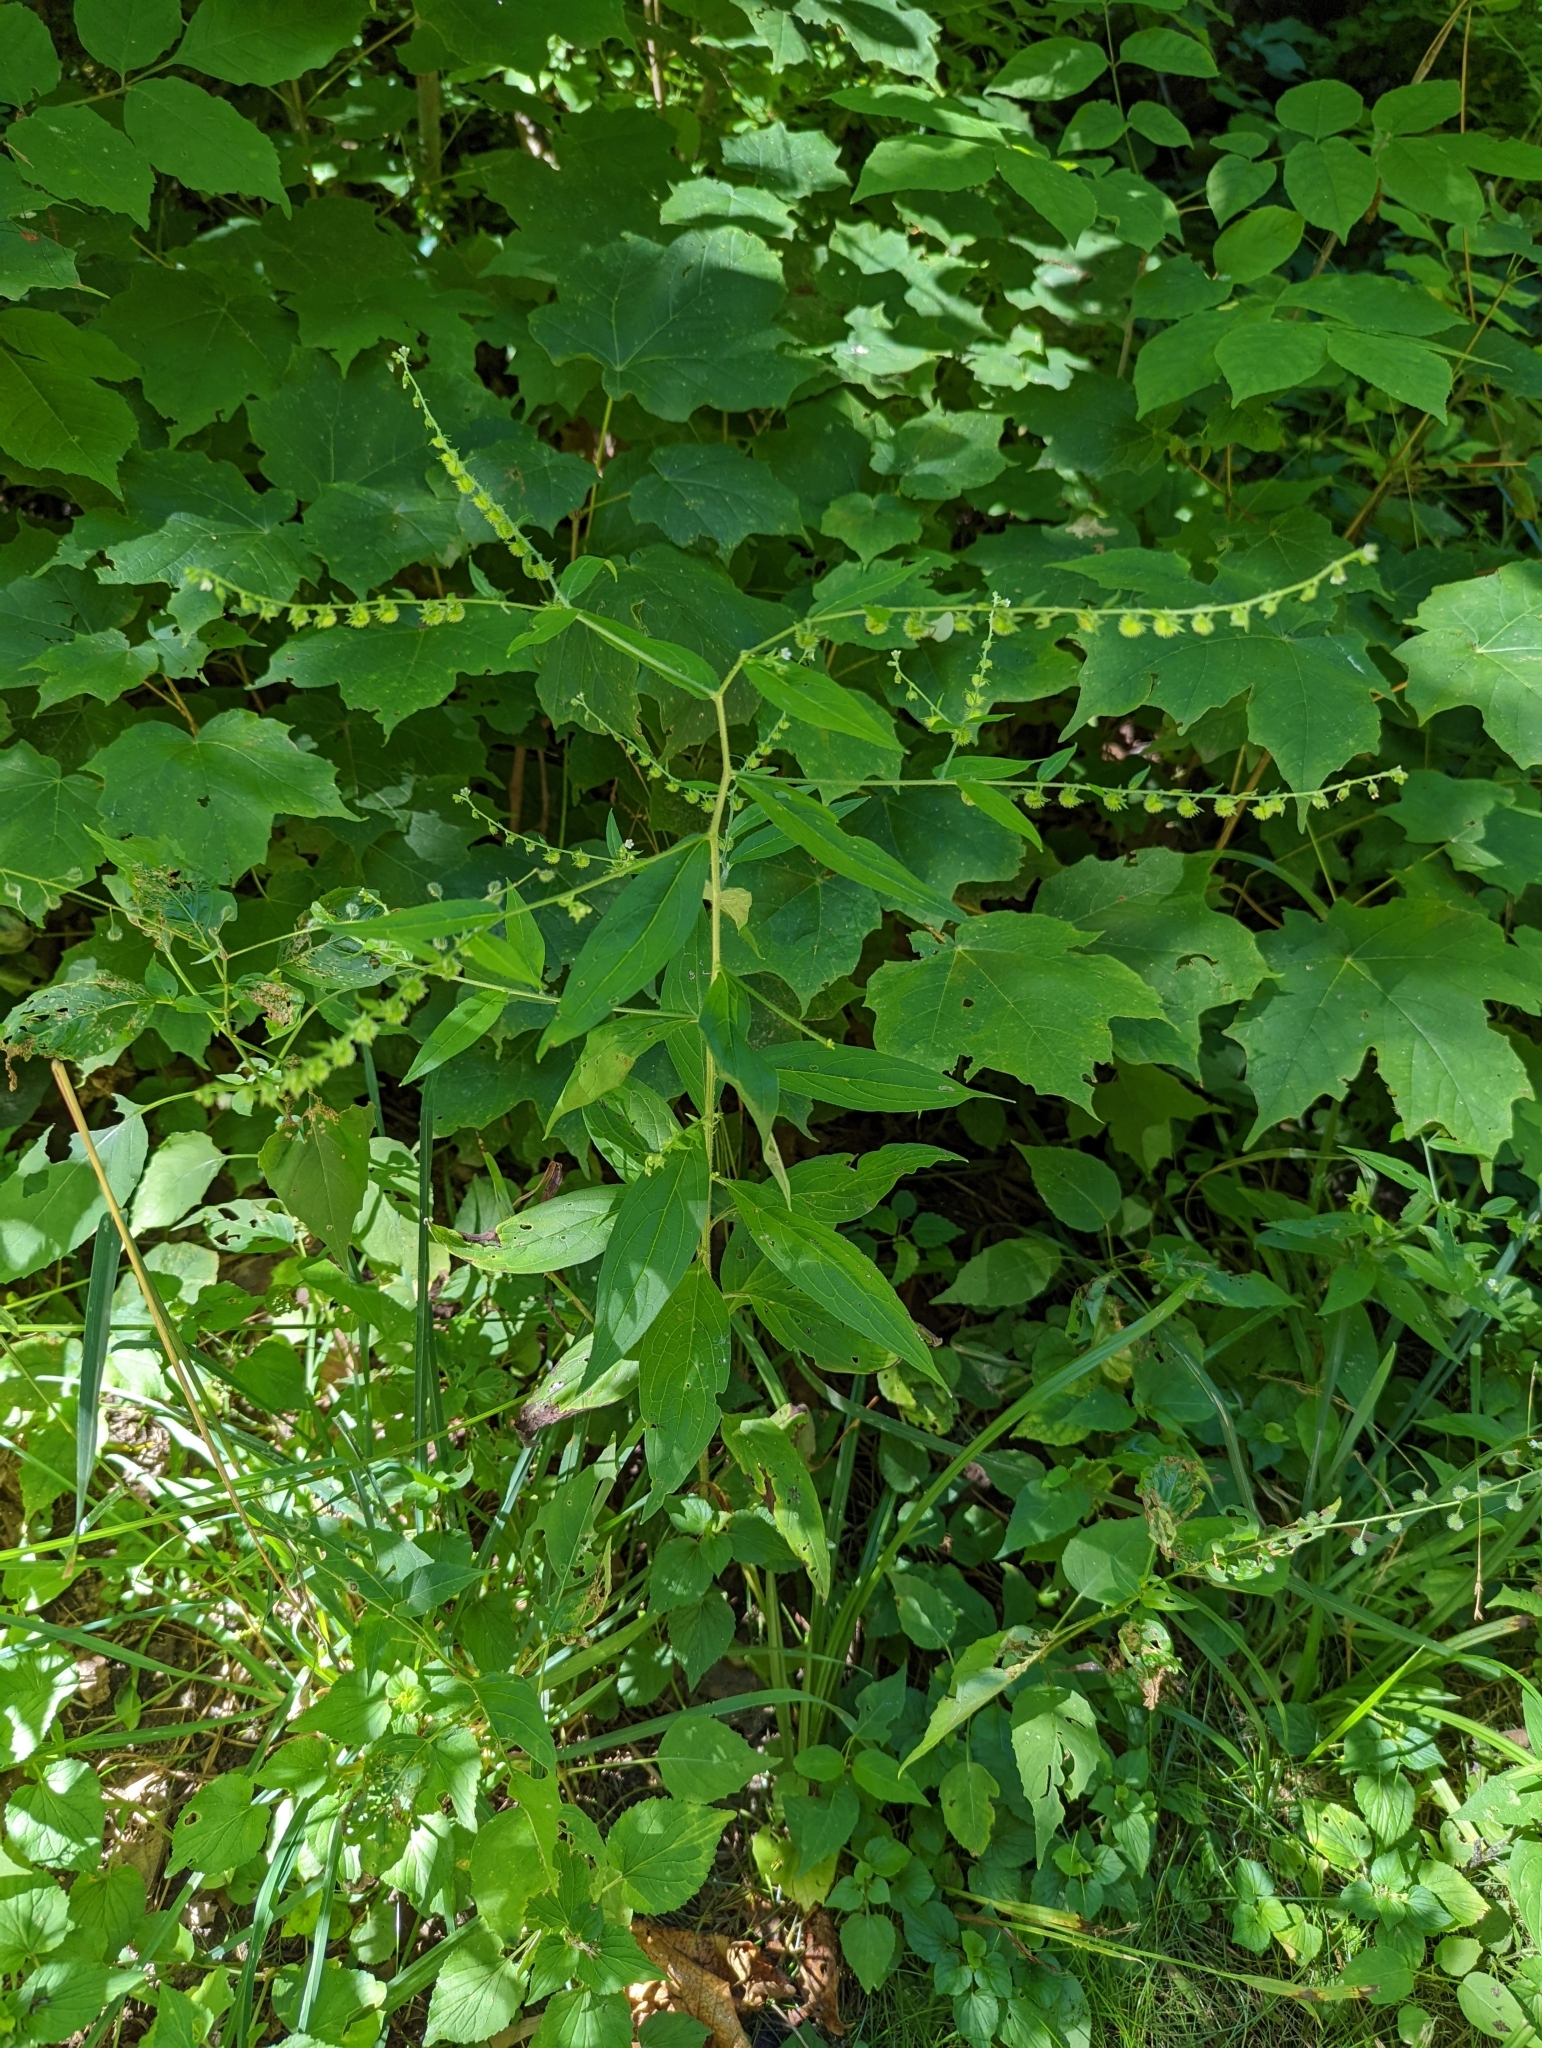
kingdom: Plantae
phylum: Tracheophyta
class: Magnoliopsida
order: Boraginales
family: Boraginaceae
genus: Hackelia
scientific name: Hackelia virginiana
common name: Beggar's-lice
